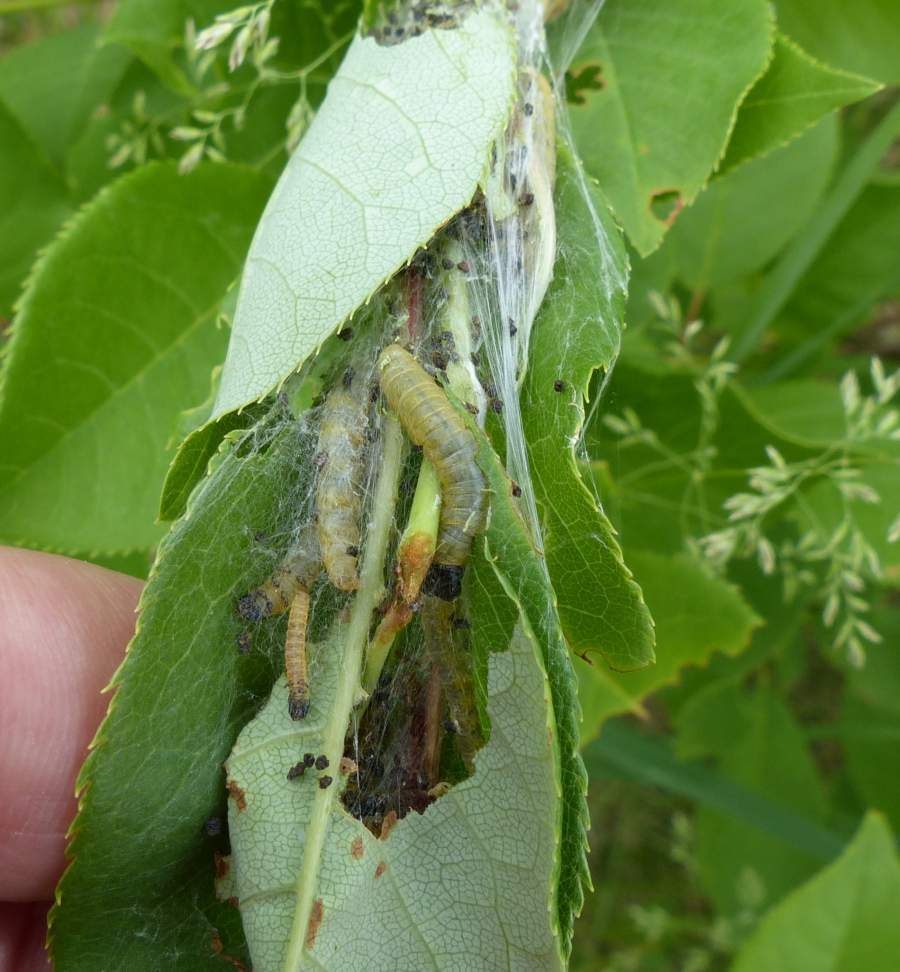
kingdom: Animalia
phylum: Arthropoda
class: Insecta
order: Lepidoptera
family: Tortricidae
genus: Archips
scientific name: Archips cerasivorana
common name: Uglynest caterpillar
